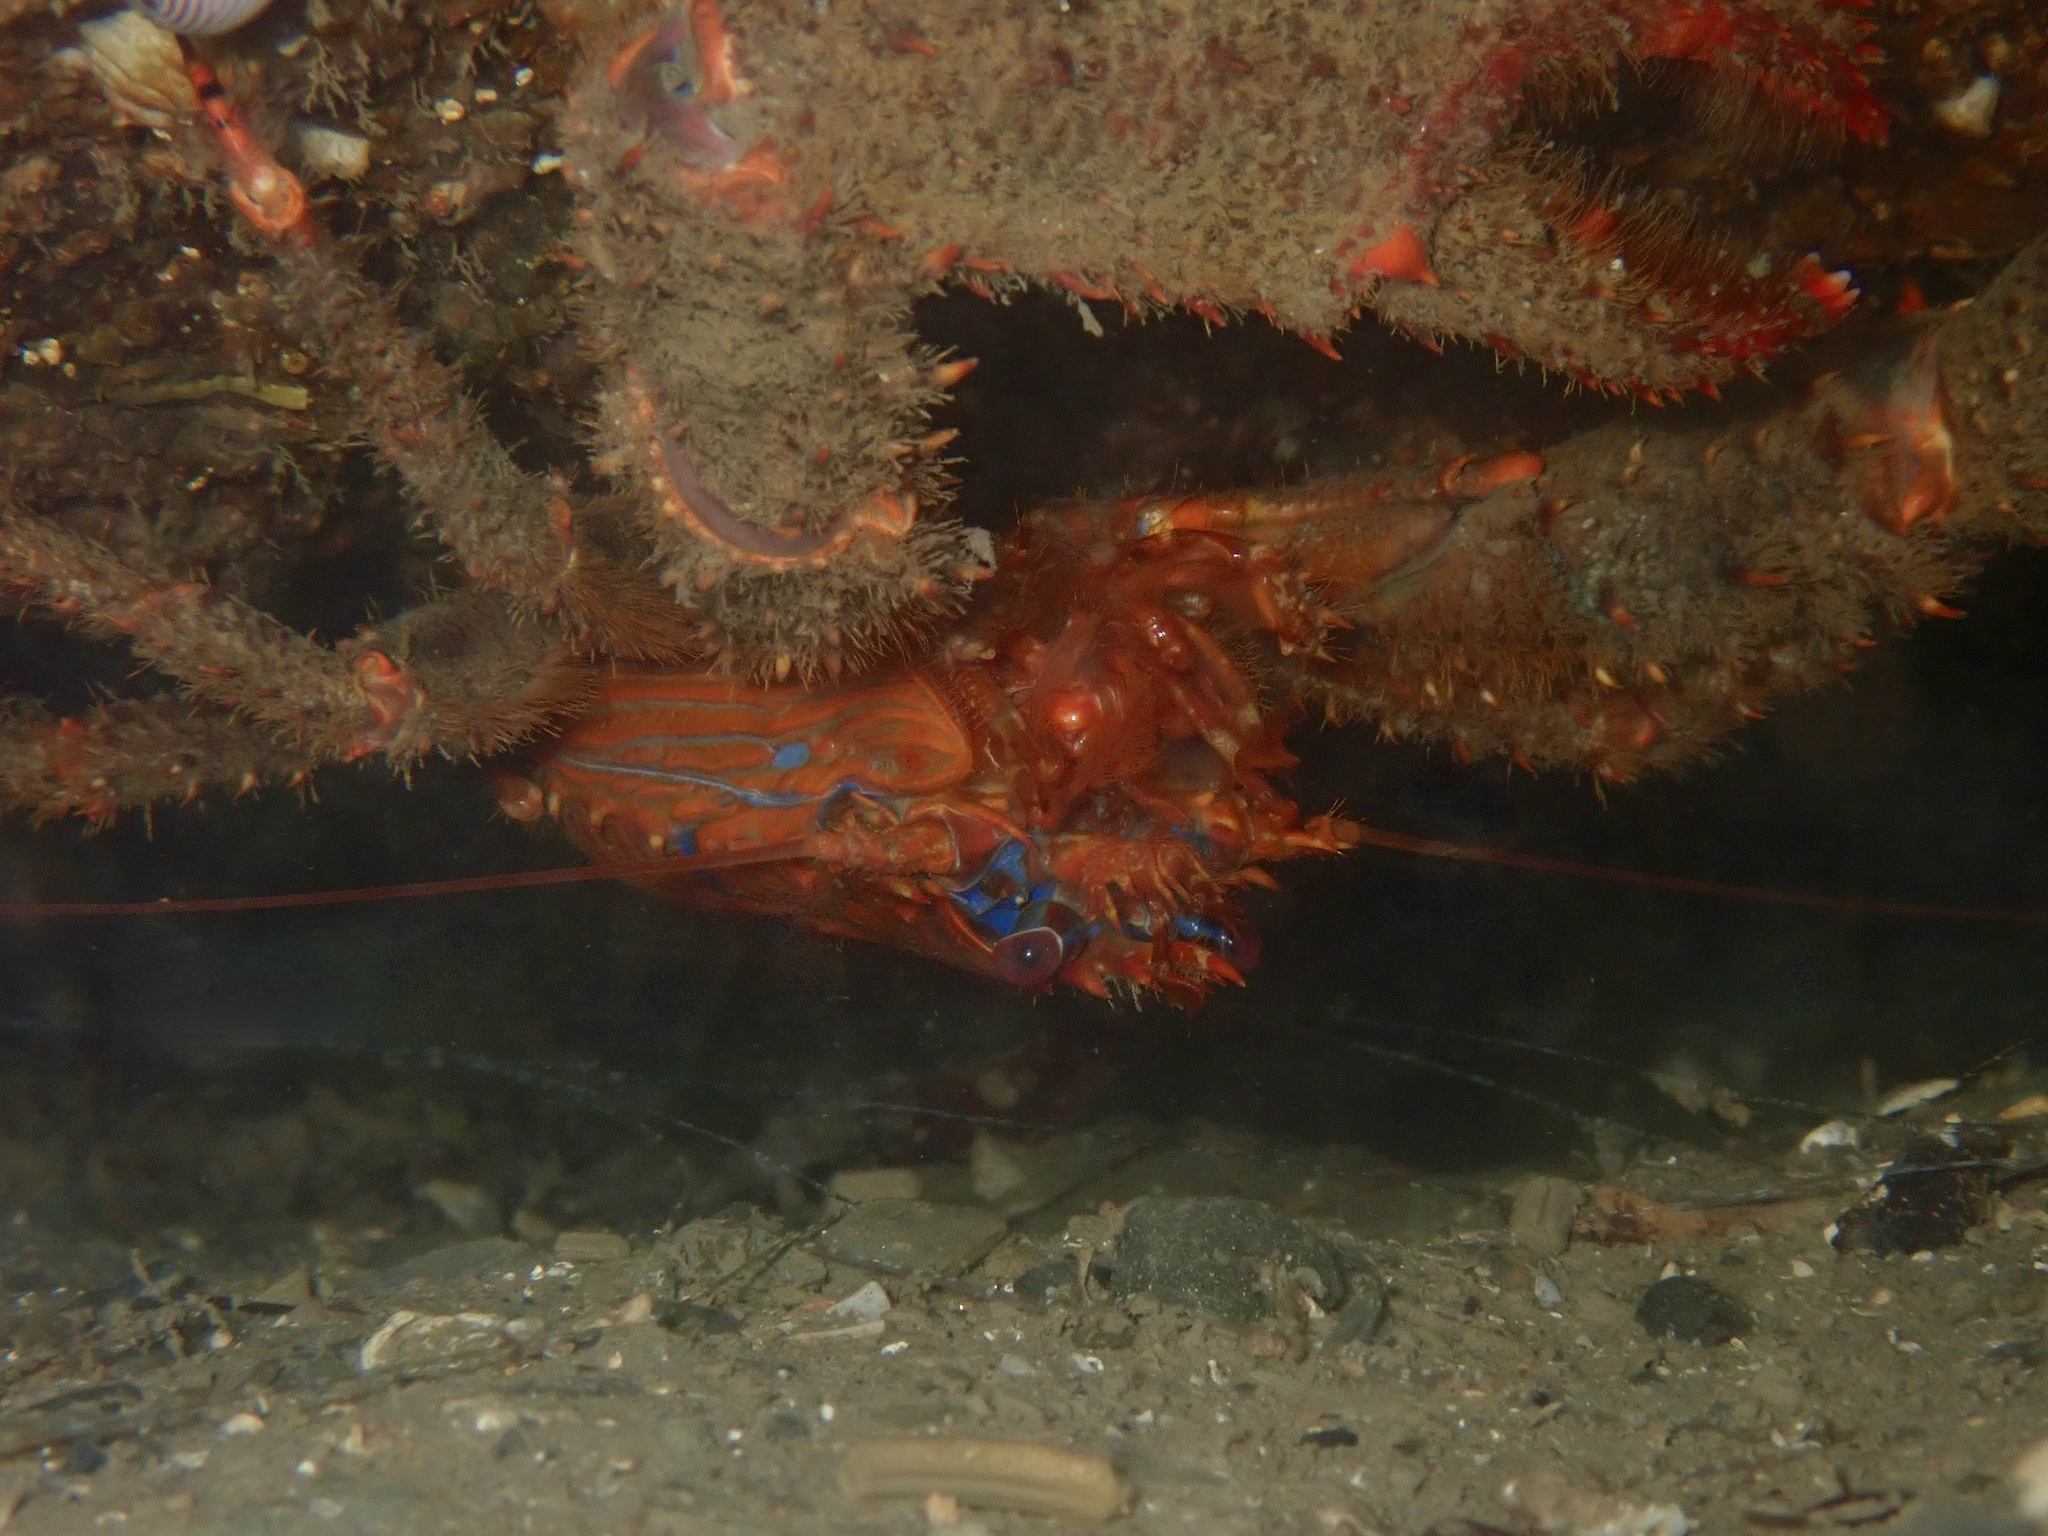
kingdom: Animalia
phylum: Arthropoda
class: Malacostraca
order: Decapoda
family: Galatheidae
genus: Galathea
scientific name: Galathea strigosa
